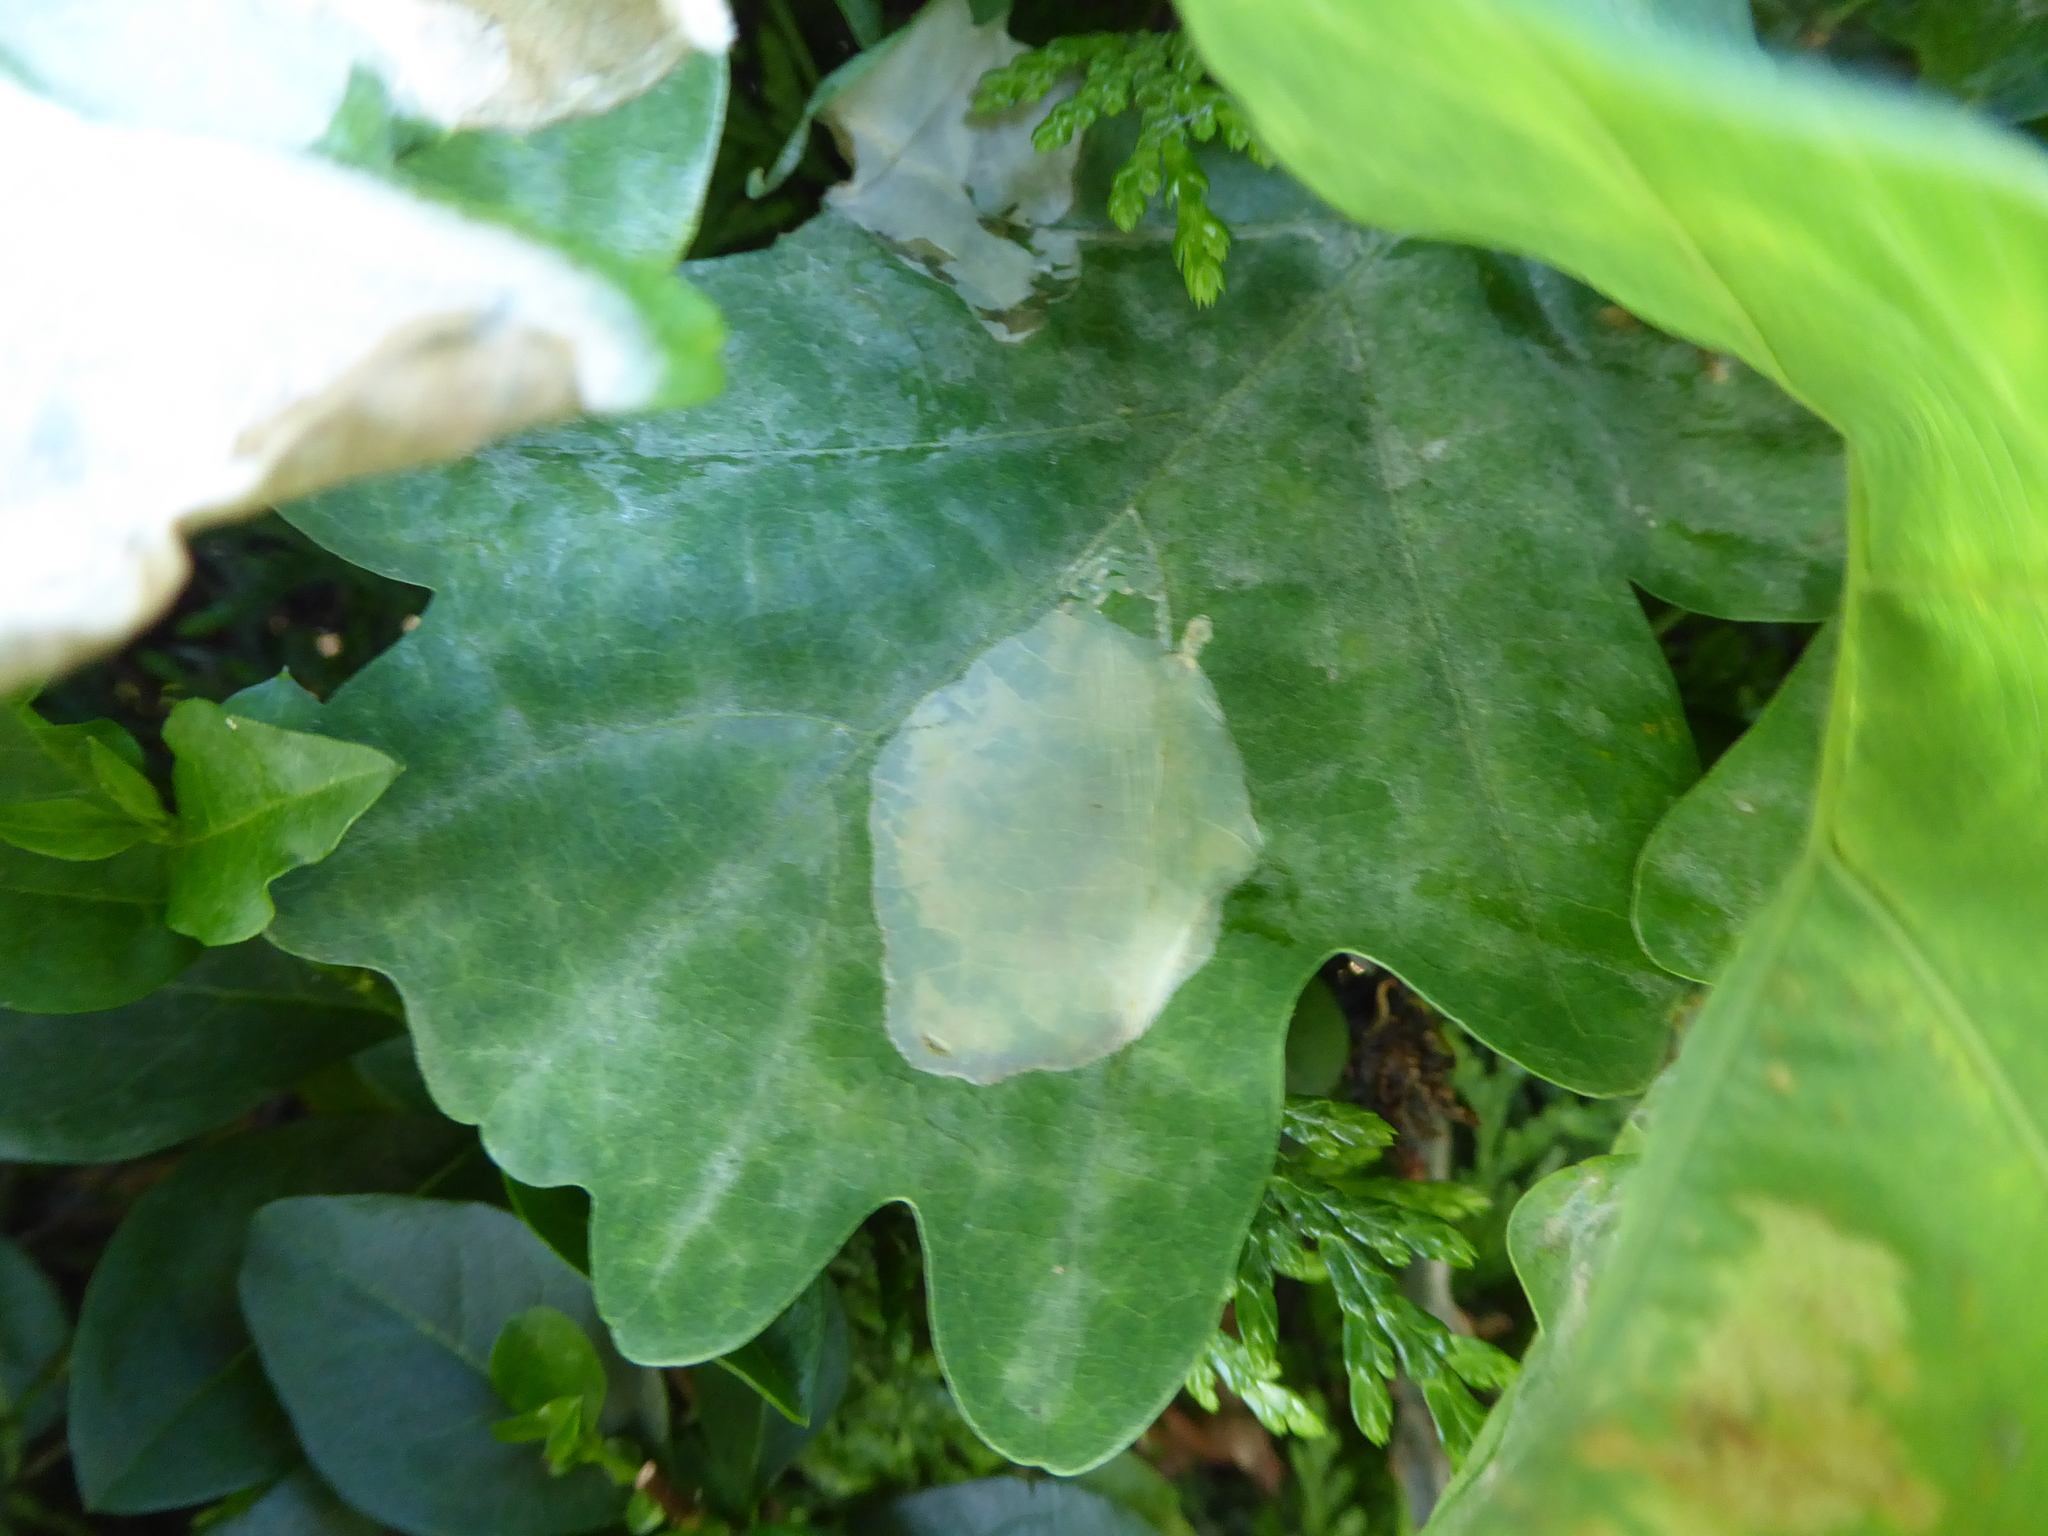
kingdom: Animalia
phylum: Arthropoda
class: Insecta
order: Lepidoptera
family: Gracillariidae
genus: Acrocercops
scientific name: Acrocercops brongniardella
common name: Brown oak slender
